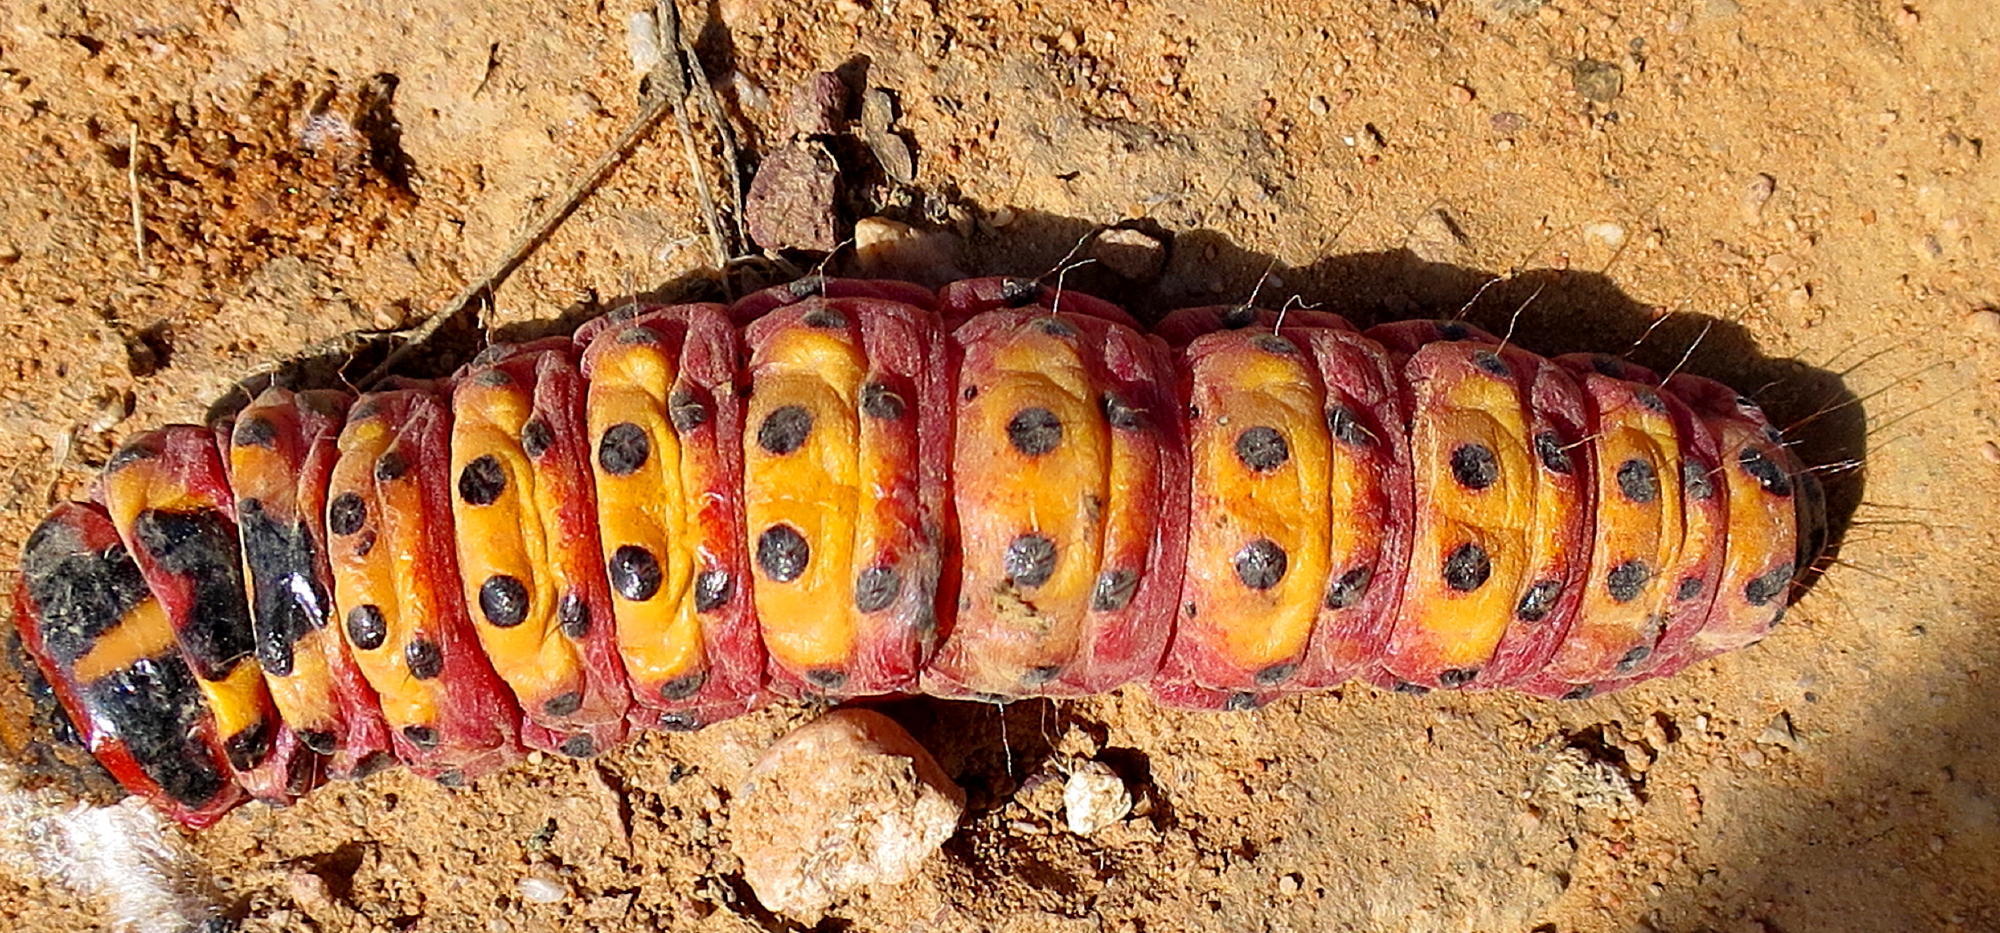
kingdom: Animalia
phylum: Arthropoda
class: Insecta
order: Lepidoptera
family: Cossidae
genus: Macrocossus
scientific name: Macrocossus toluminus
